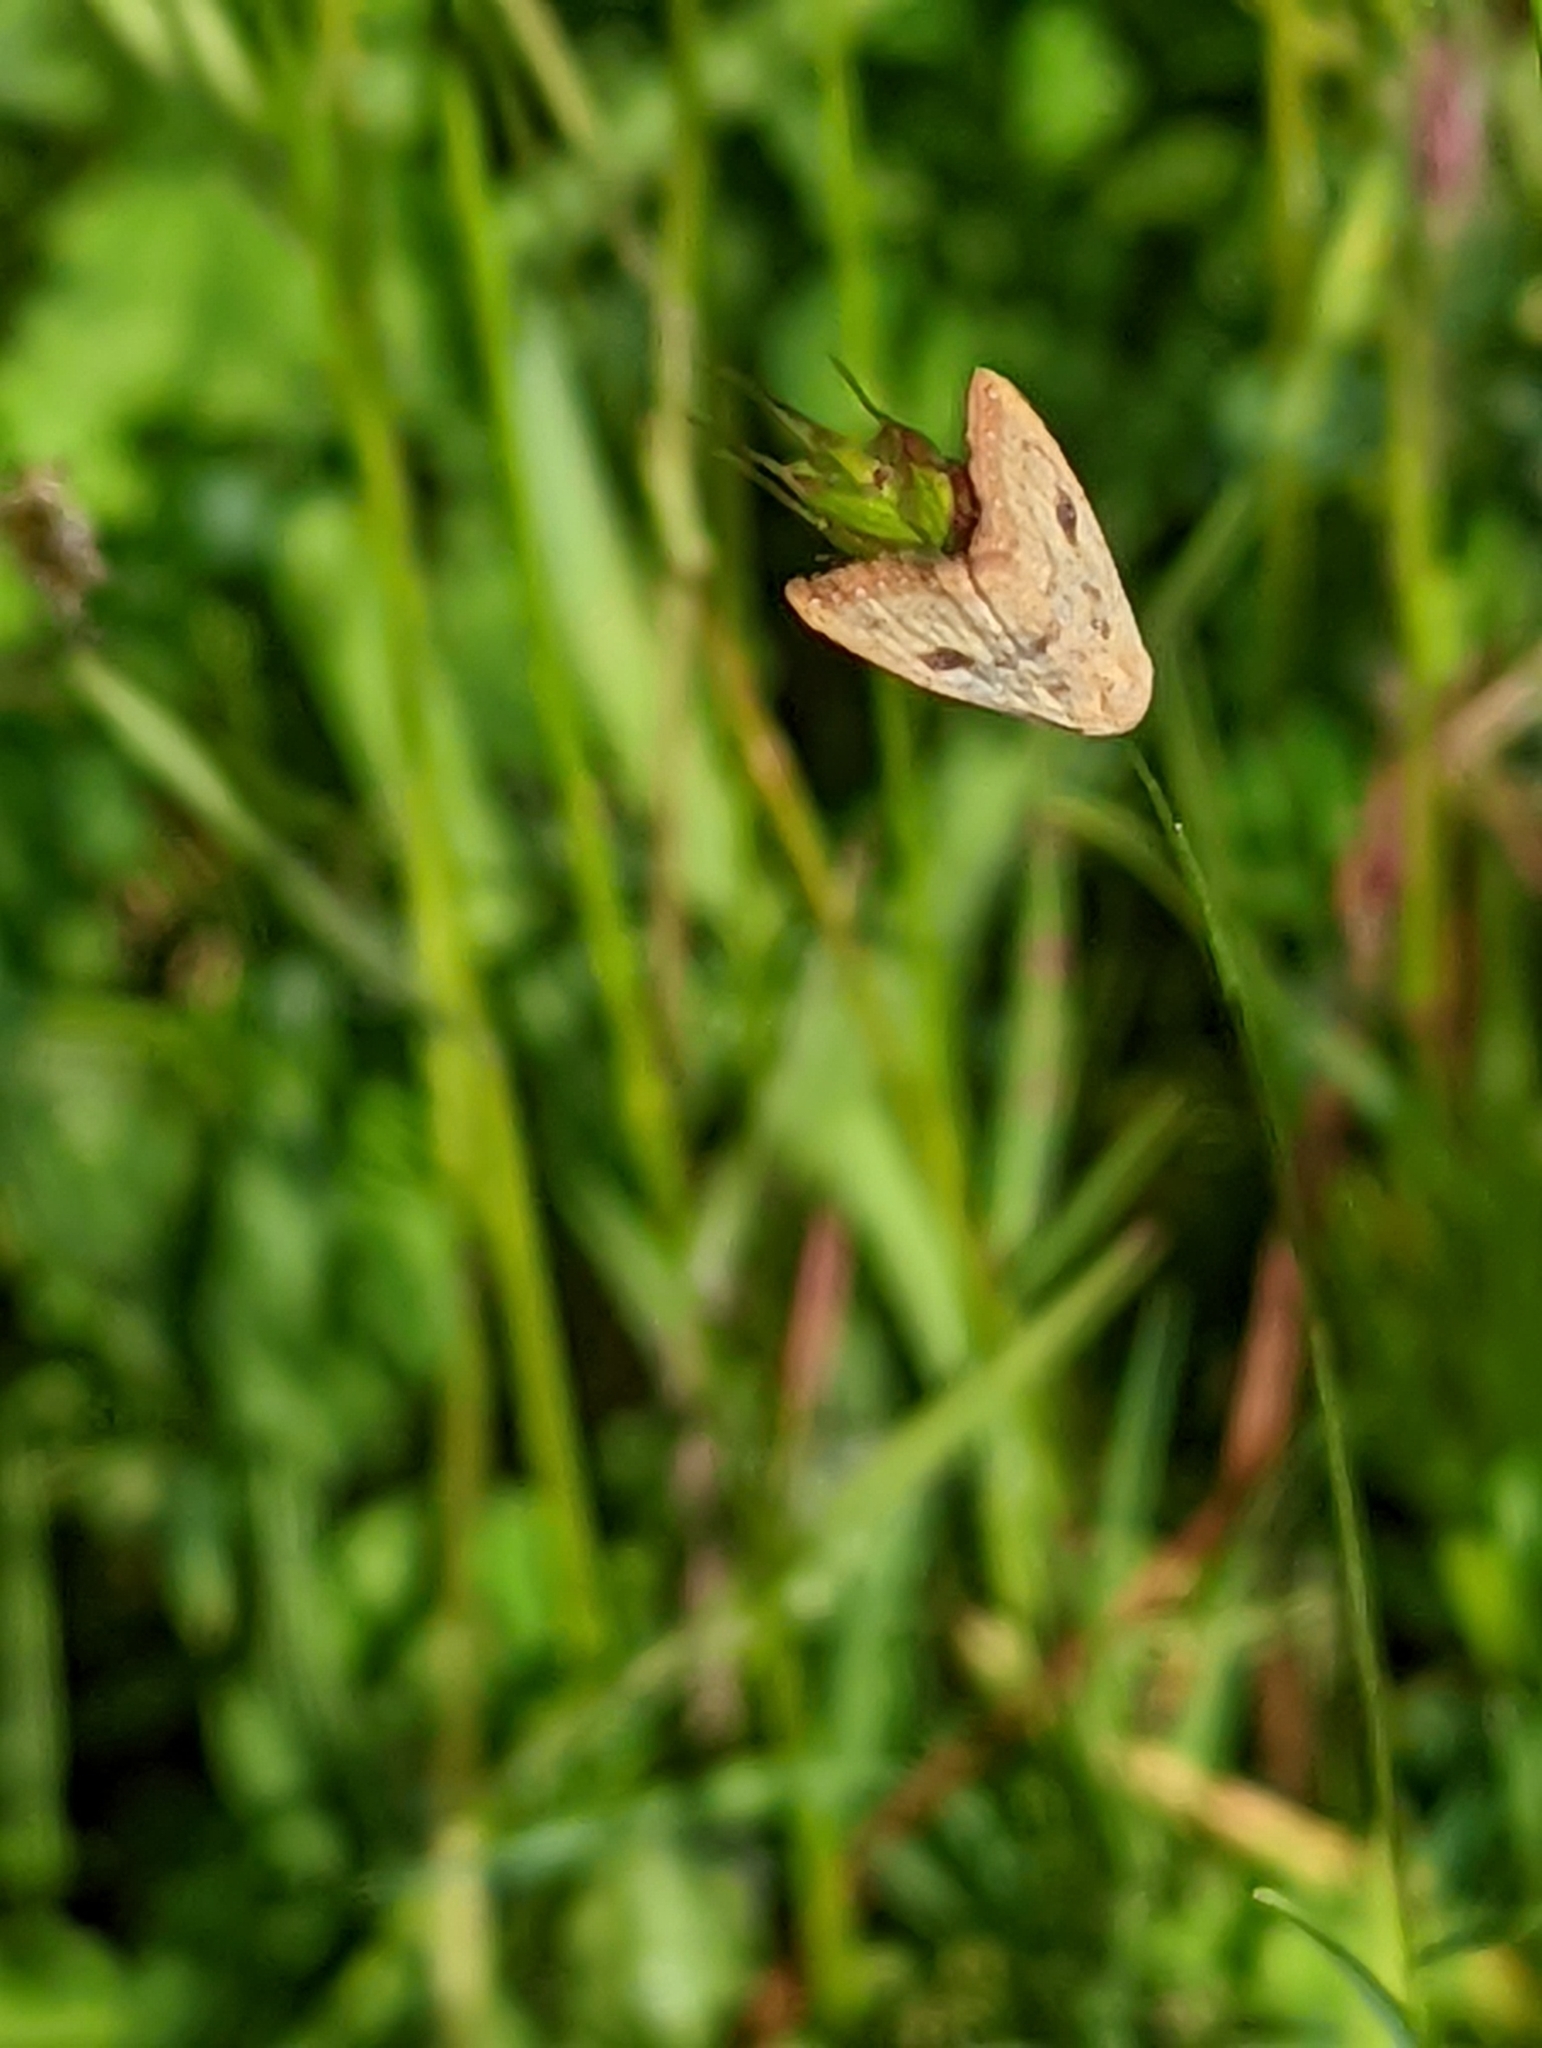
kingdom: Animalia
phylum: Arthropoda
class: Insecta
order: Lepidoptera
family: Erebidae
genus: Rivula
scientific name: Rivula sericealis
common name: Straw dot
